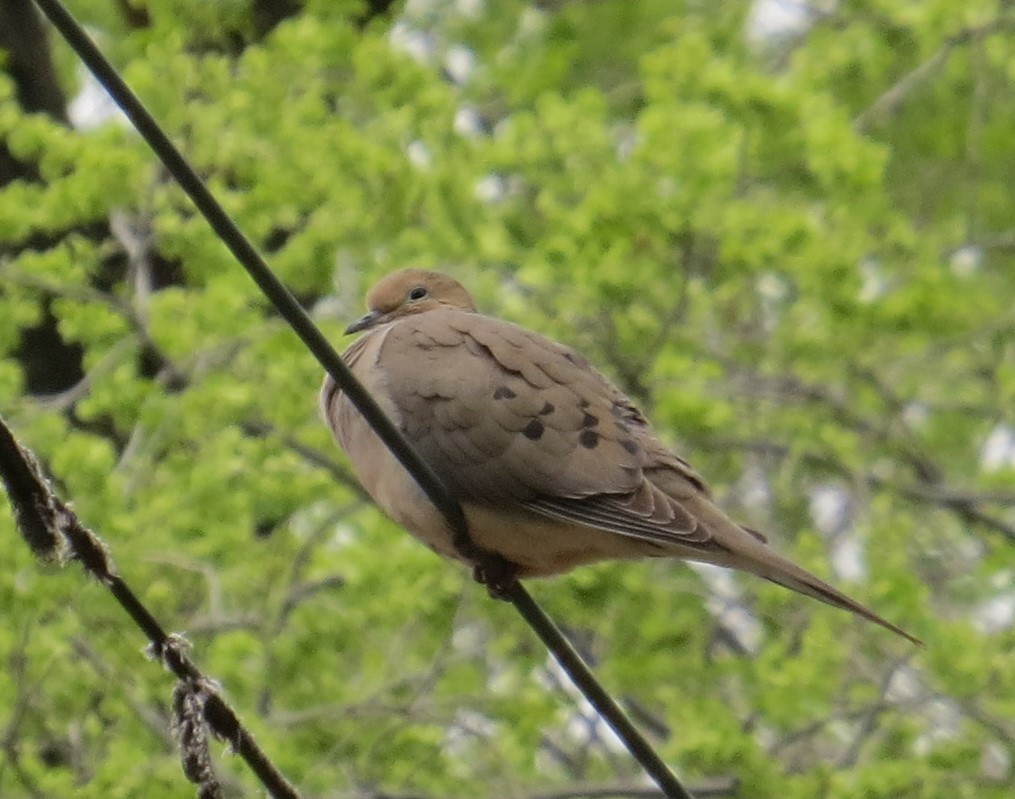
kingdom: Animalia
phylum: Chordata
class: Aves
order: Columbiformes
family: Columbidae
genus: Zenaida
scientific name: Zenaida macroura
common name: Mourning dove
